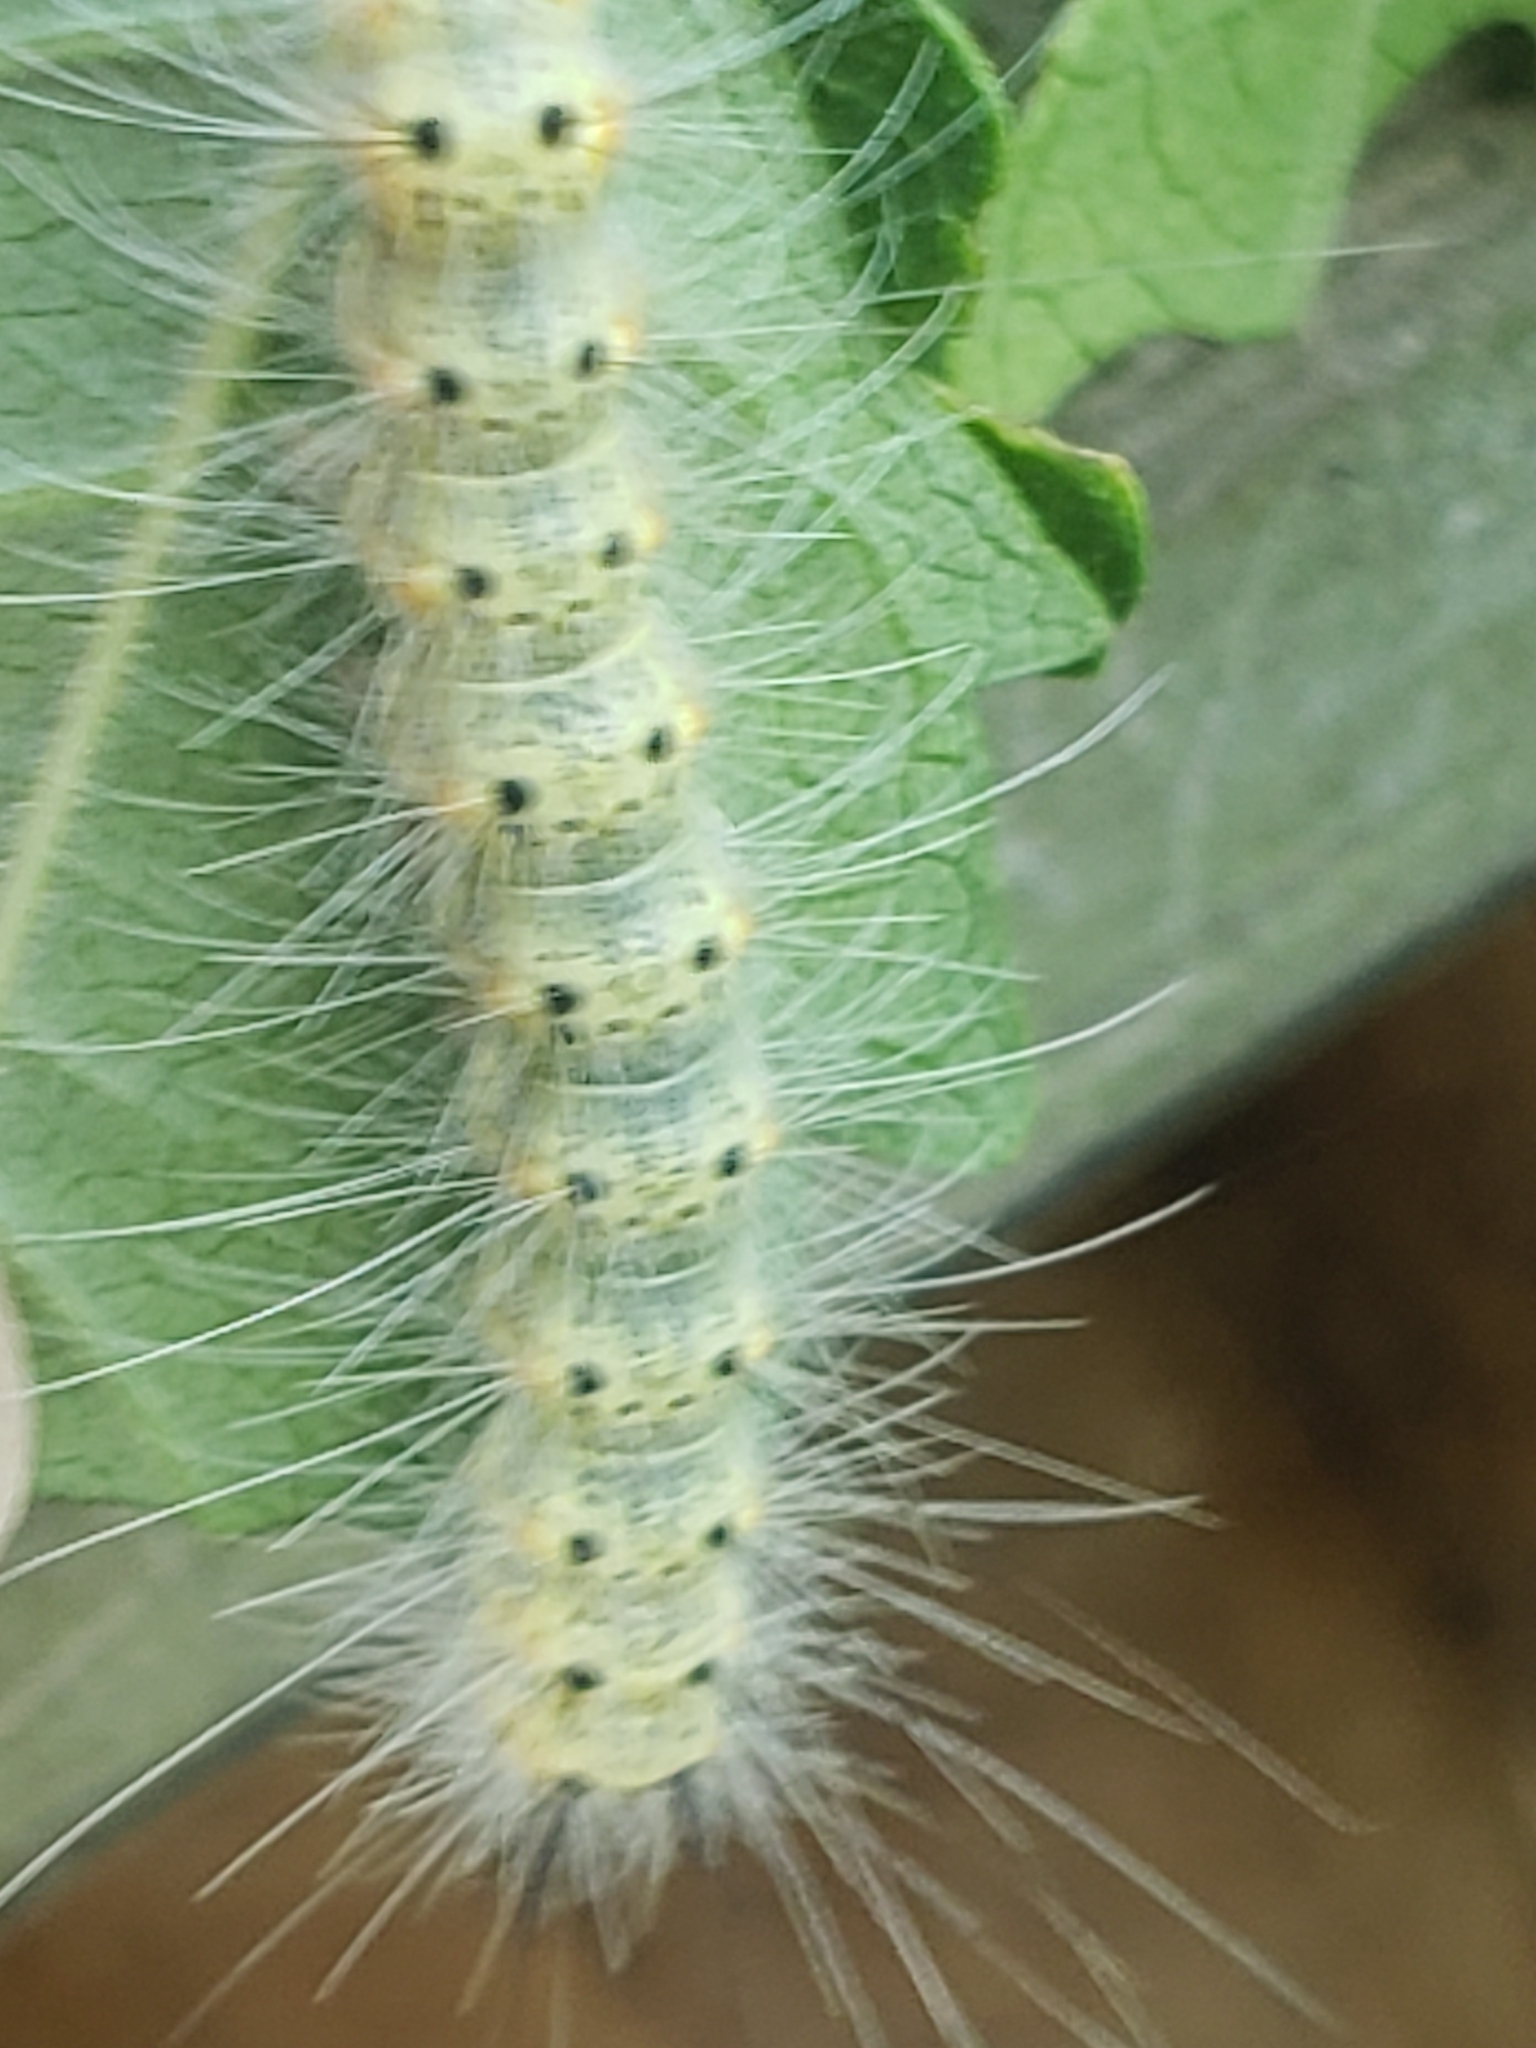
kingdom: Animalia
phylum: Arthropoda
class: Insecta
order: Lepidoptera
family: Erebidae
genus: Hyphantria
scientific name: Hyphantria cunea
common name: American white moth
